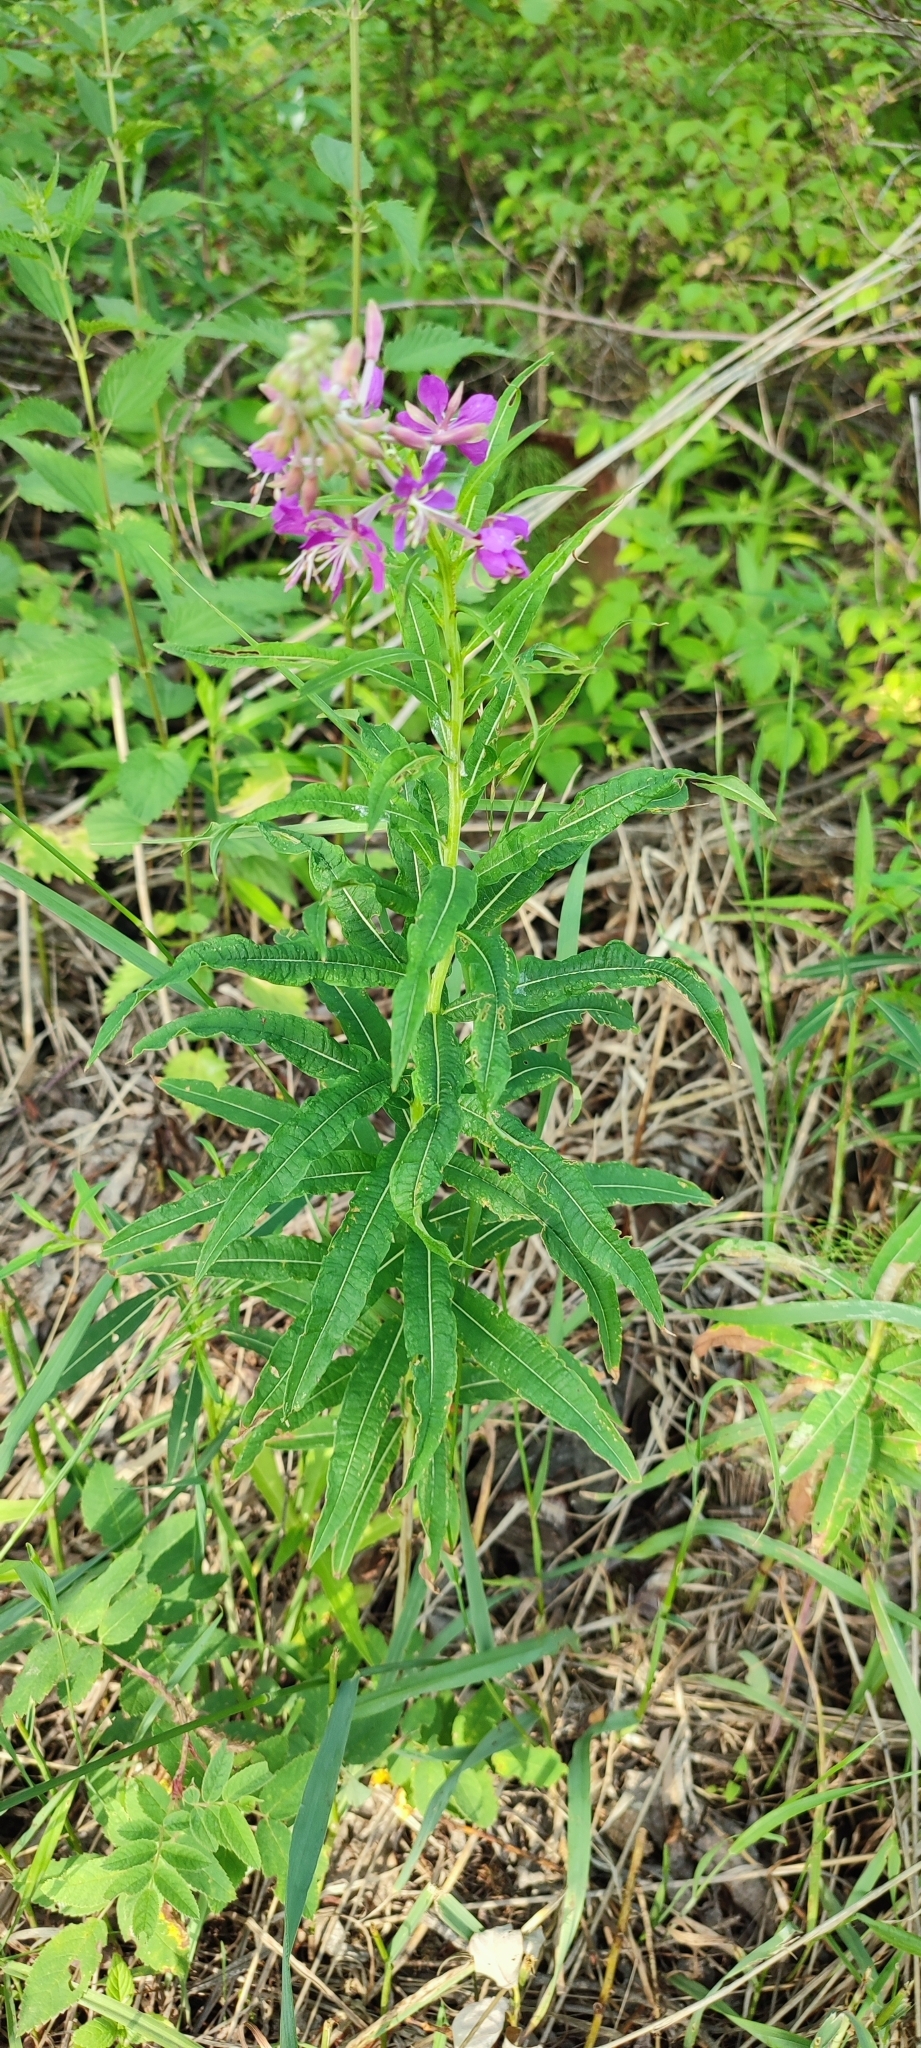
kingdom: Plantae
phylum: Tracheophyta
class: Magnoliopsida
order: Myrtales
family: Onagraceae
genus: Chamaenerion
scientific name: Chamaenerion angustifolium
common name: Fireweed
